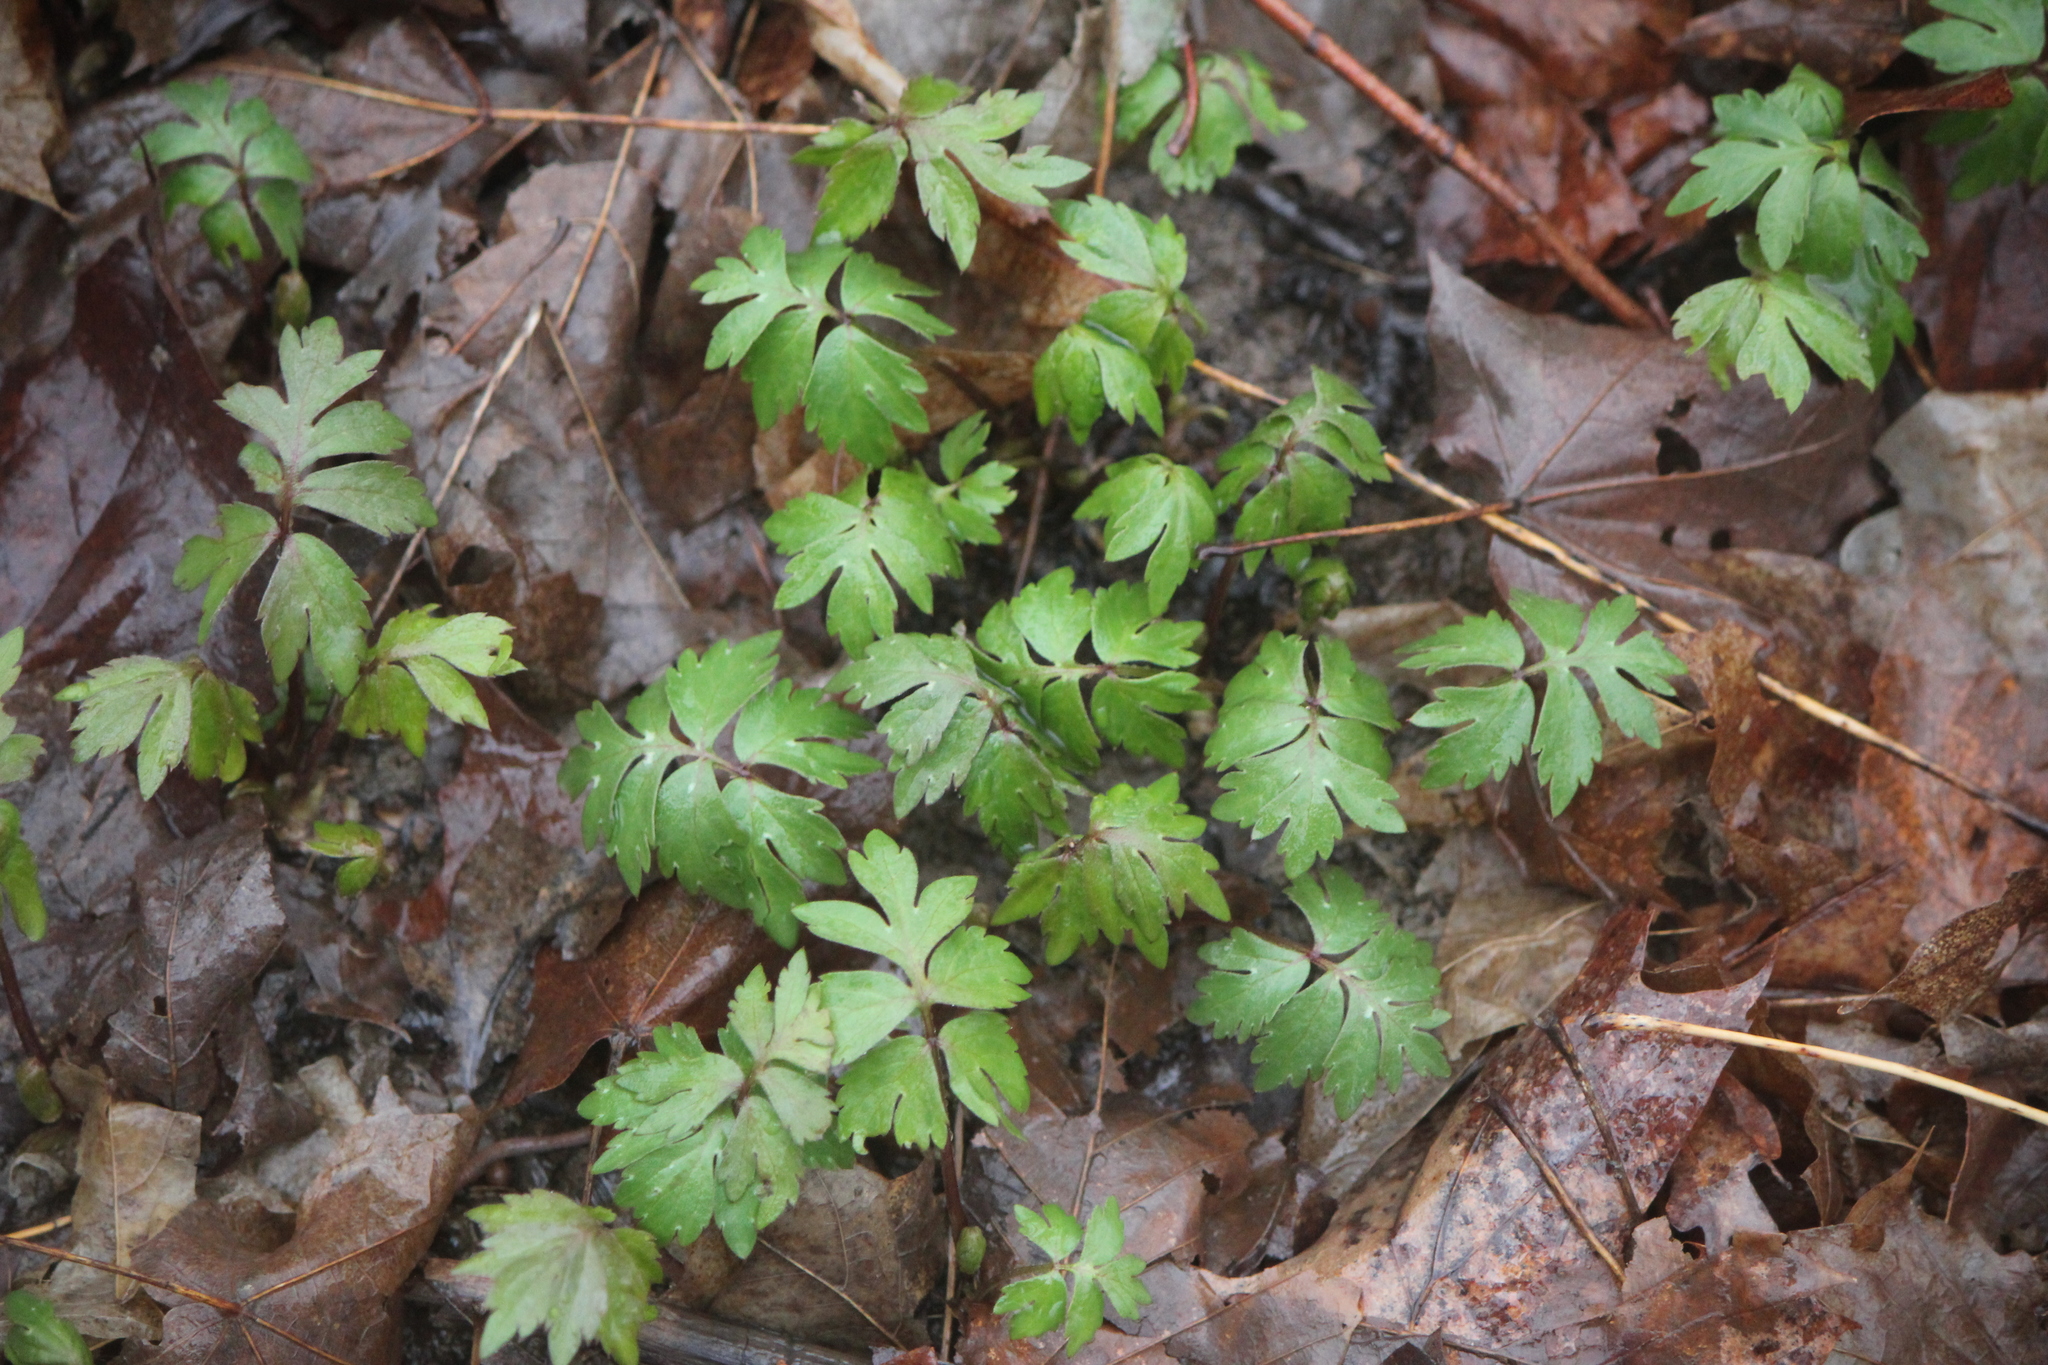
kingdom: Plantae
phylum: Tracheophyta
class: Magnoliopsida
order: Boraginales
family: Hydrophyllaceae
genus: Hydrophyllum
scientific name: Hydrophyllum virginianum
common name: Virginia waterleaf
